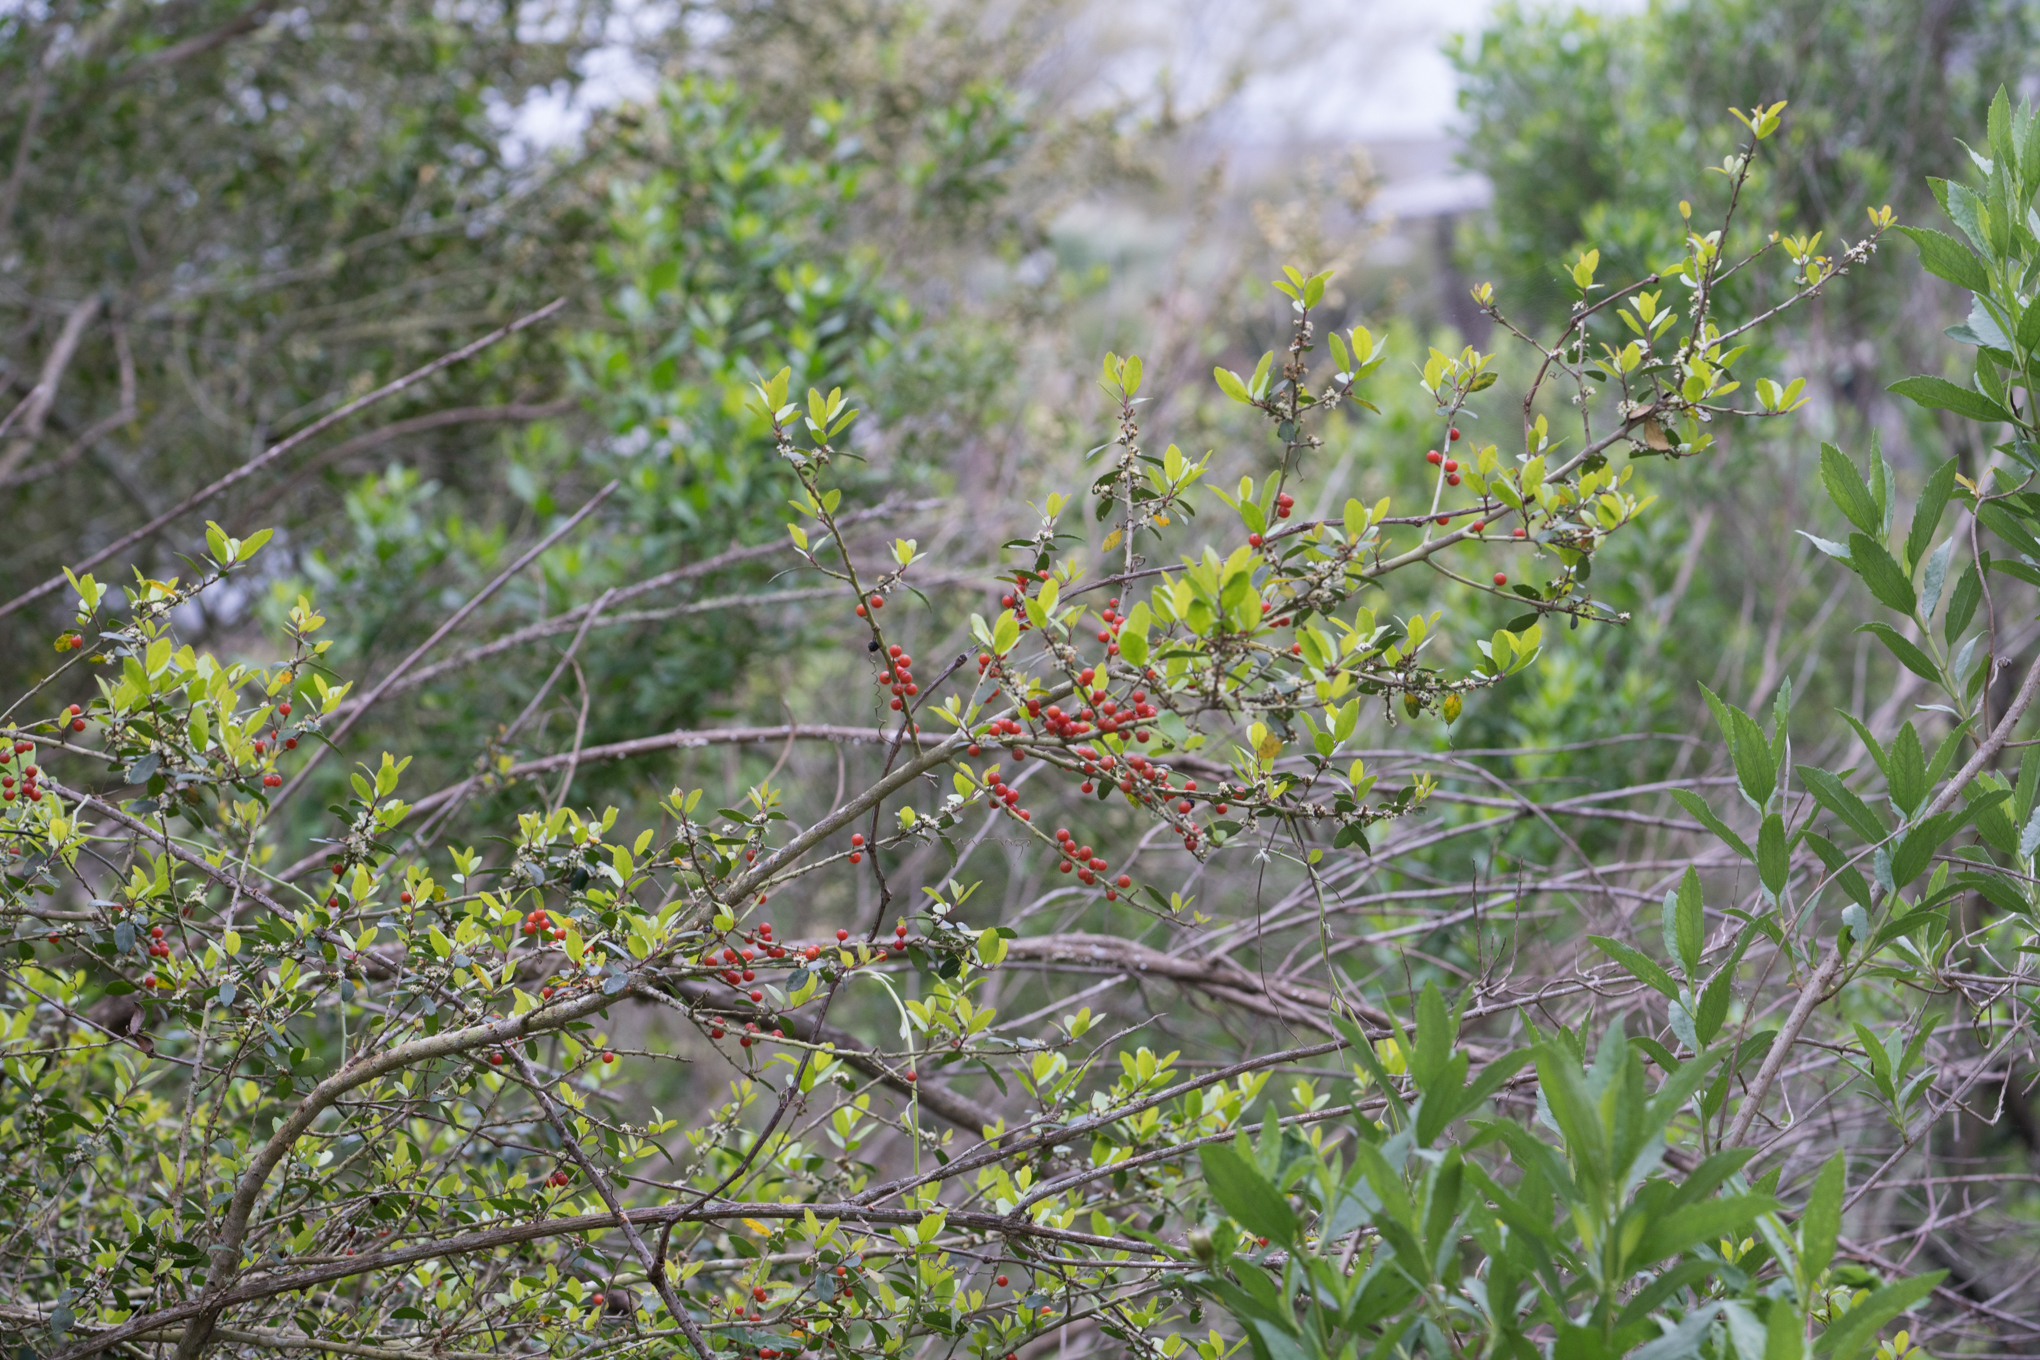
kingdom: Plantae
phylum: Tracheophyta
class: Magnoliopsida
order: Aquifoliales
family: Aquifoliaceae
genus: Ilex
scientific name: Ilex vomitoria
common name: Yaupon holly
